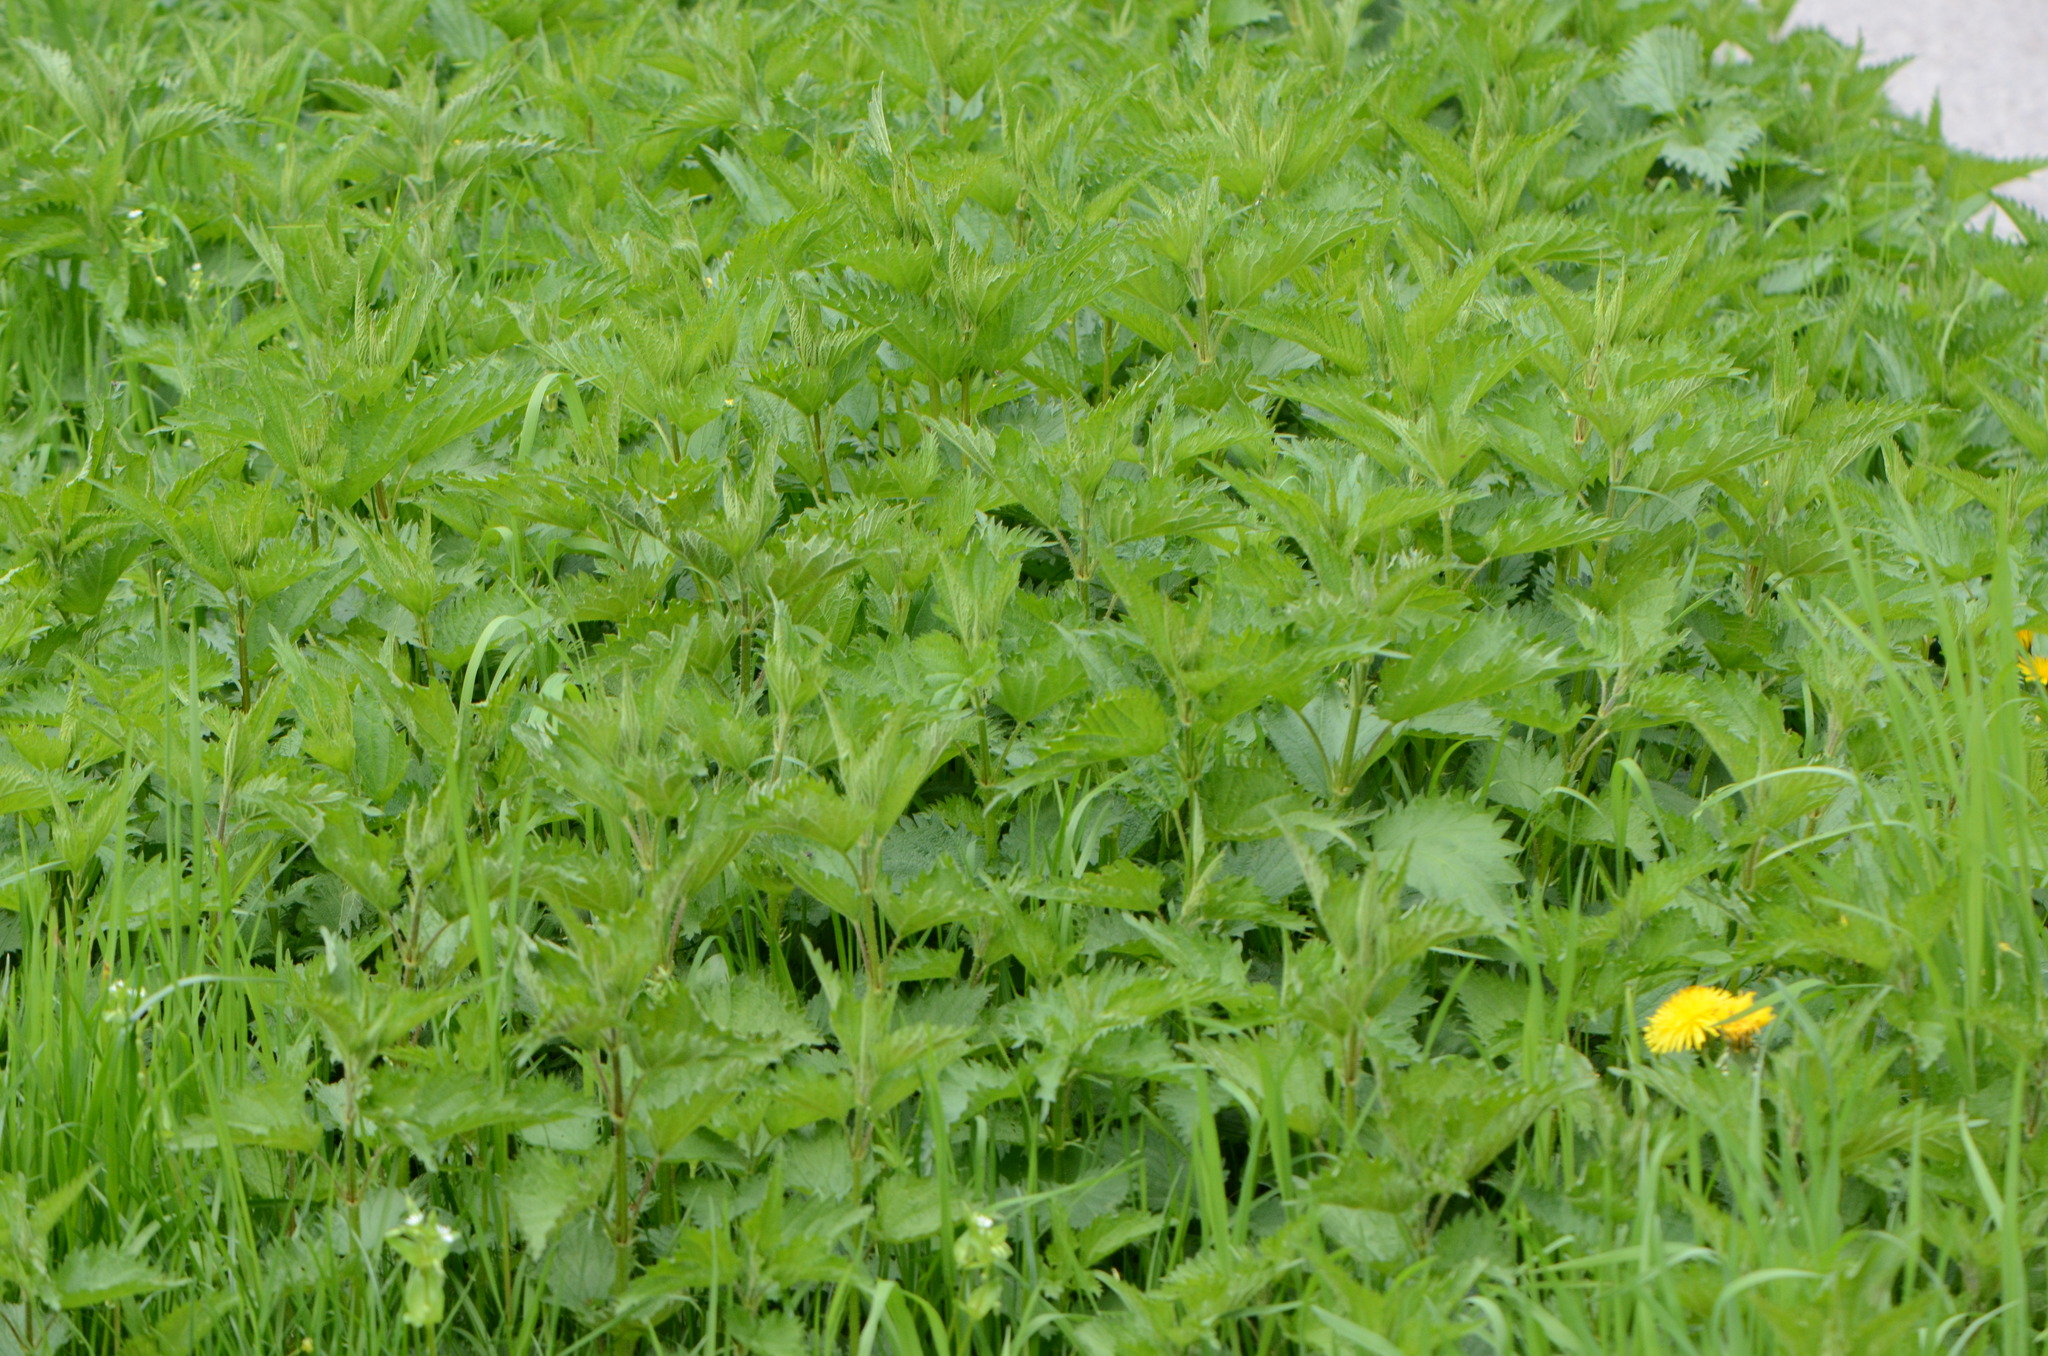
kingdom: Plantae
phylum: Tracheophyta
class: Magnoliopsida
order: Rosales
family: Urticaceae
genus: Urtica
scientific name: Urtica dioica
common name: Common nettle
